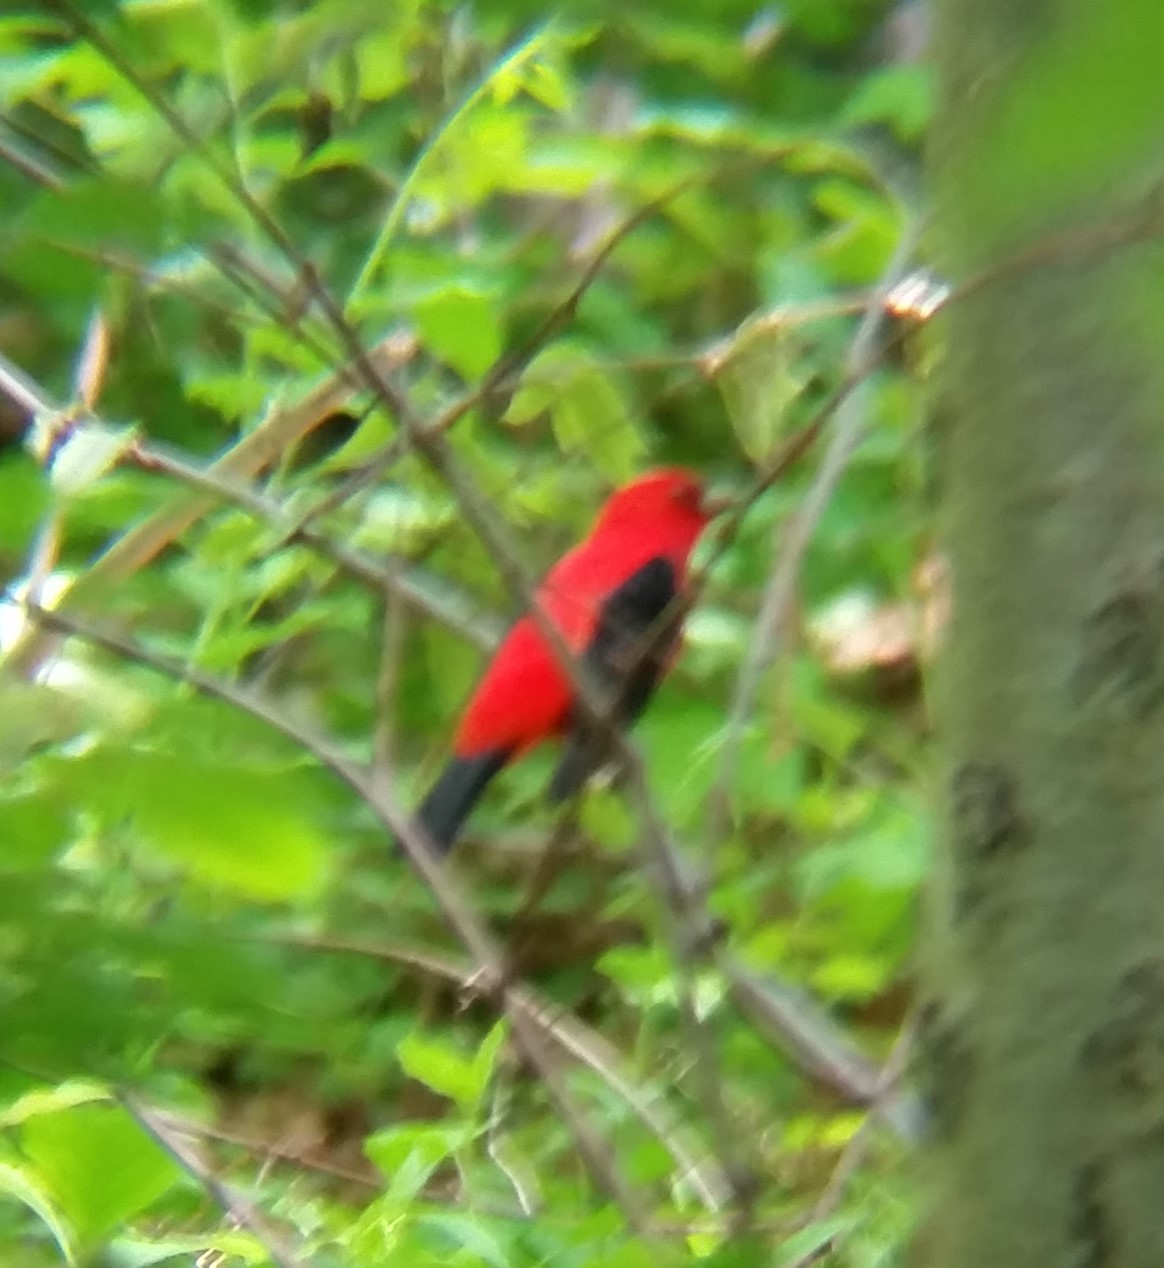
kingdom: Animalia
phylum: Chordata
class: Aves
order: Passeriformes
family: Cardinalidae
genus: Piranga
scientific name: Piranga olivacea
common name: Scarlet tanager
